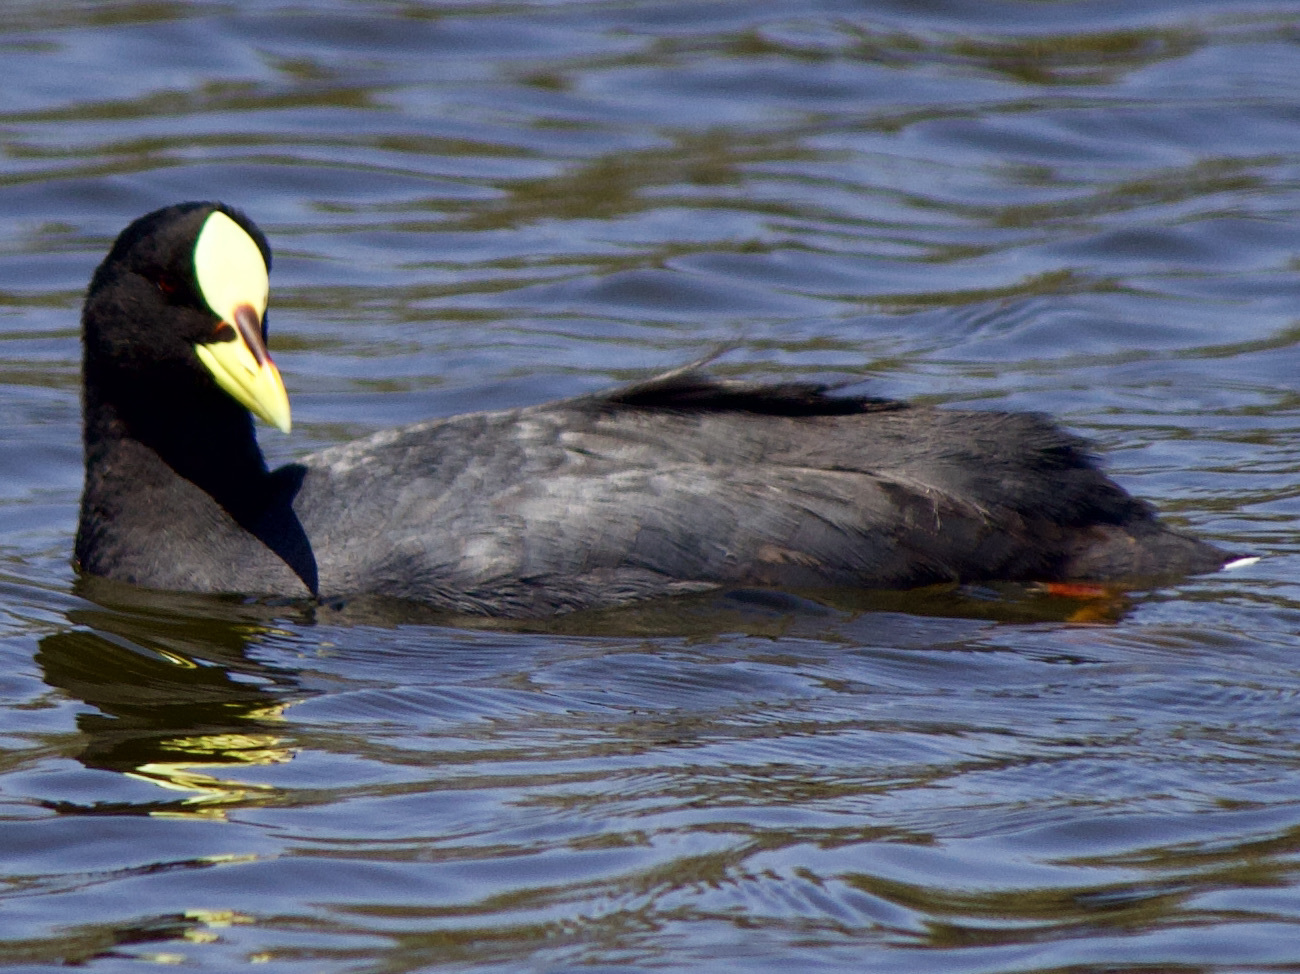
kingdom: Animalia
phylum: Chordata
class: Aves
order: Gruiformes
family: Rallidae
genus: Fulica
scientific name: Fulica armillata
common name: Red-gartered coot
